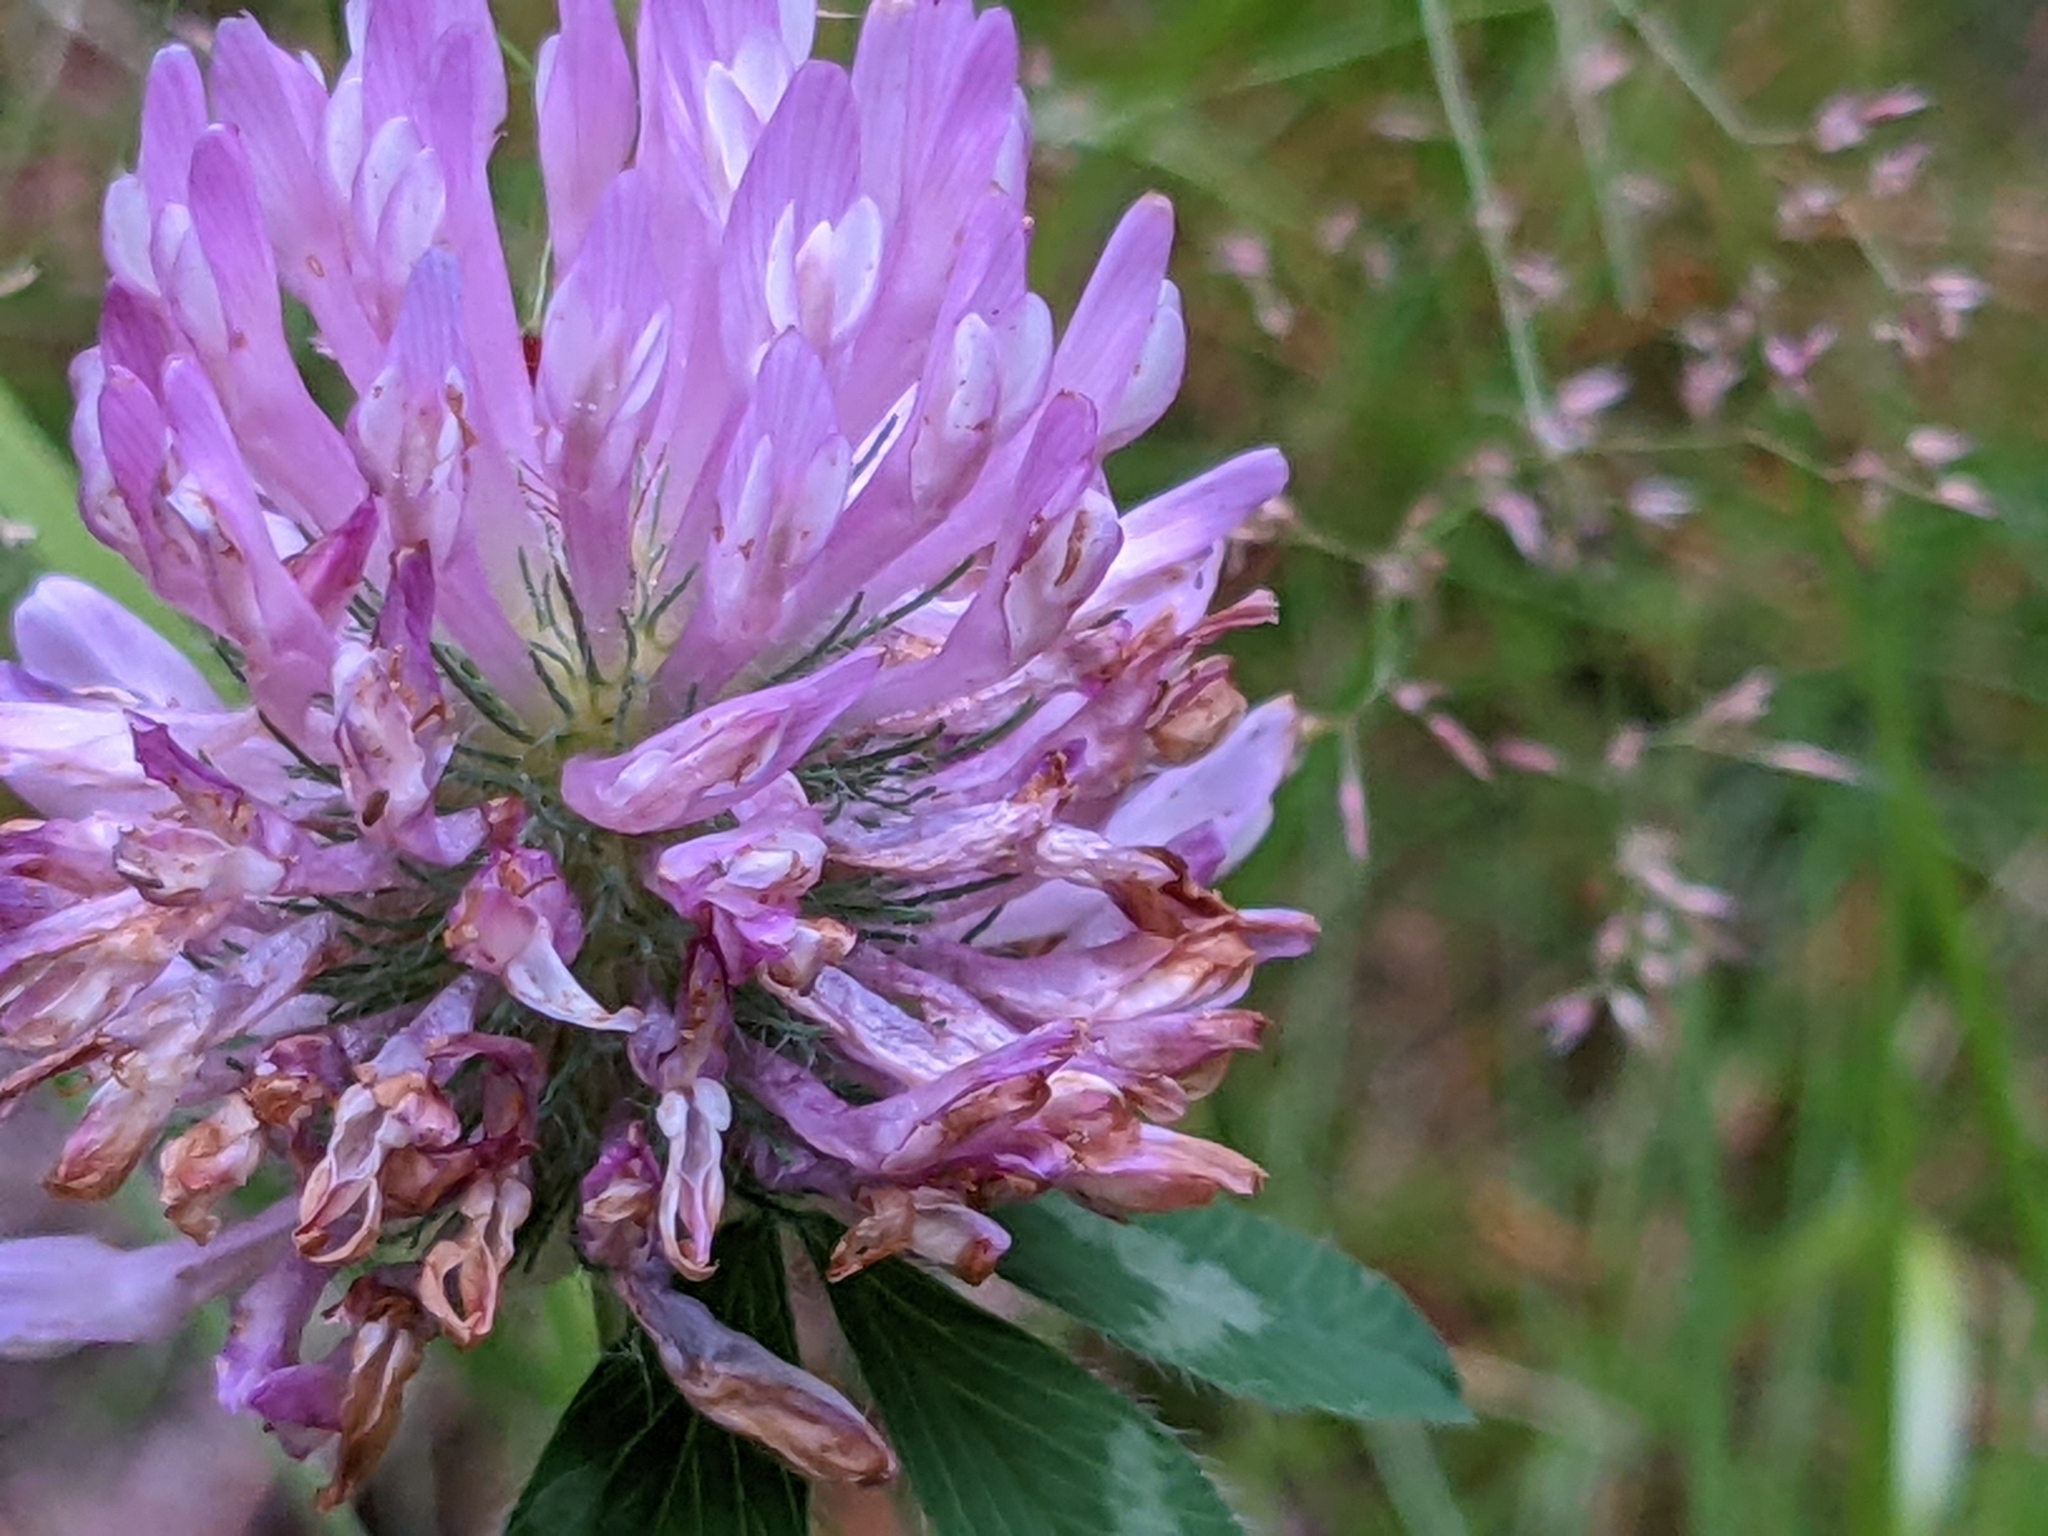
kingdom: Plantae
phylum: Tracheophyta
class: Magnoliopsida
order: Fabales
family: Fabaceae
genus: Trifolium
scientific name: Trifolium pratense
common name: Red clover
